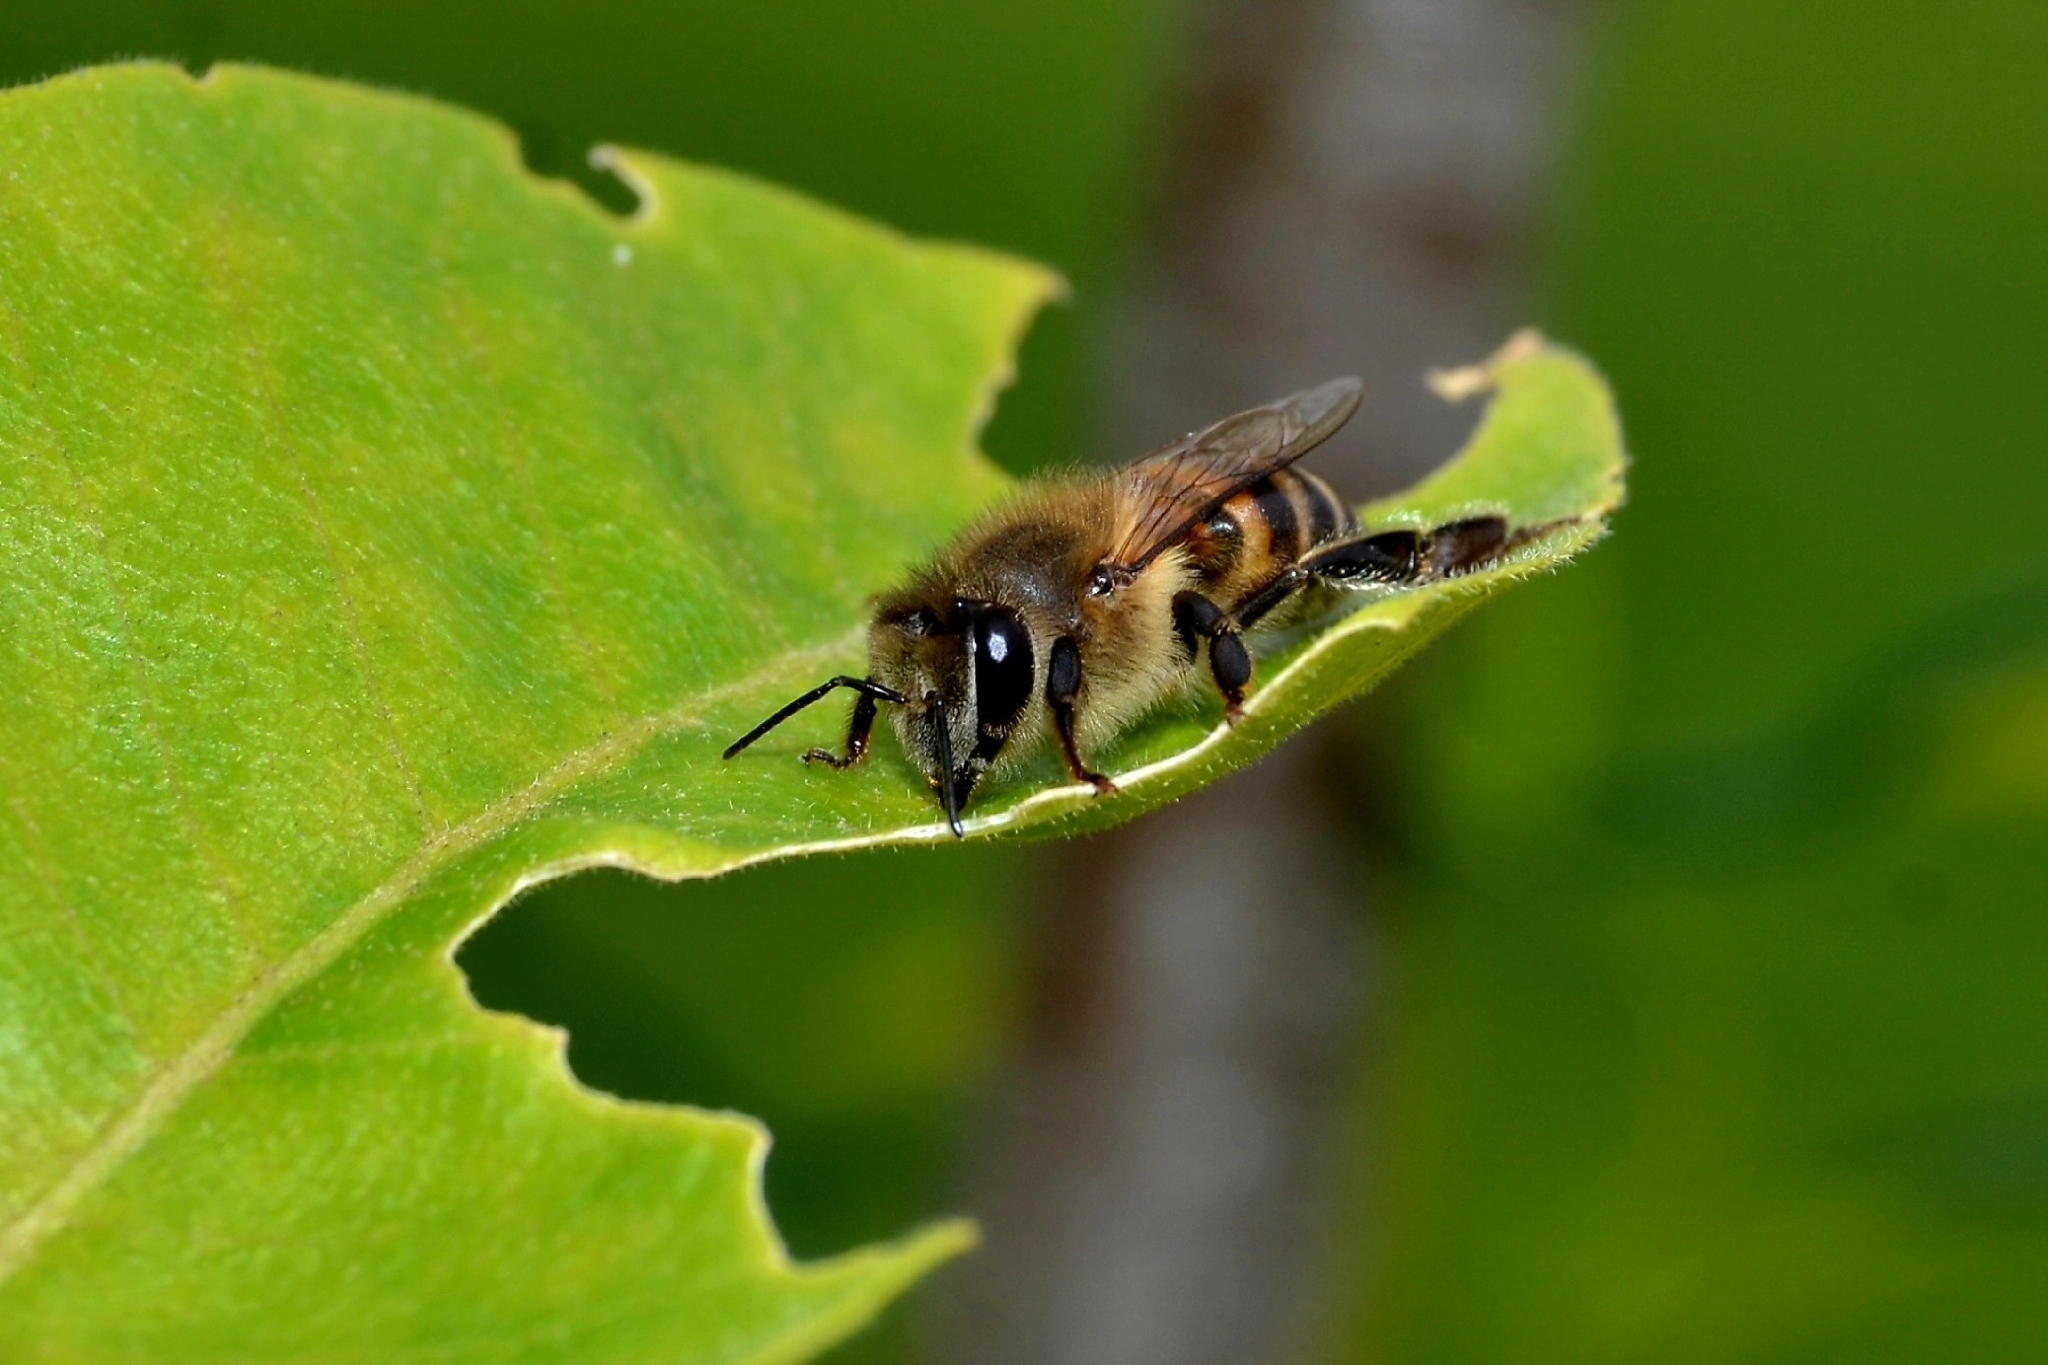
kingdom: Animalia
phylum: Arthropoda
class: Insecta
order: Hymenoptera
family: Apidae
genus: Apis
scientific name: Apis mellifera
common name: Honey bee
